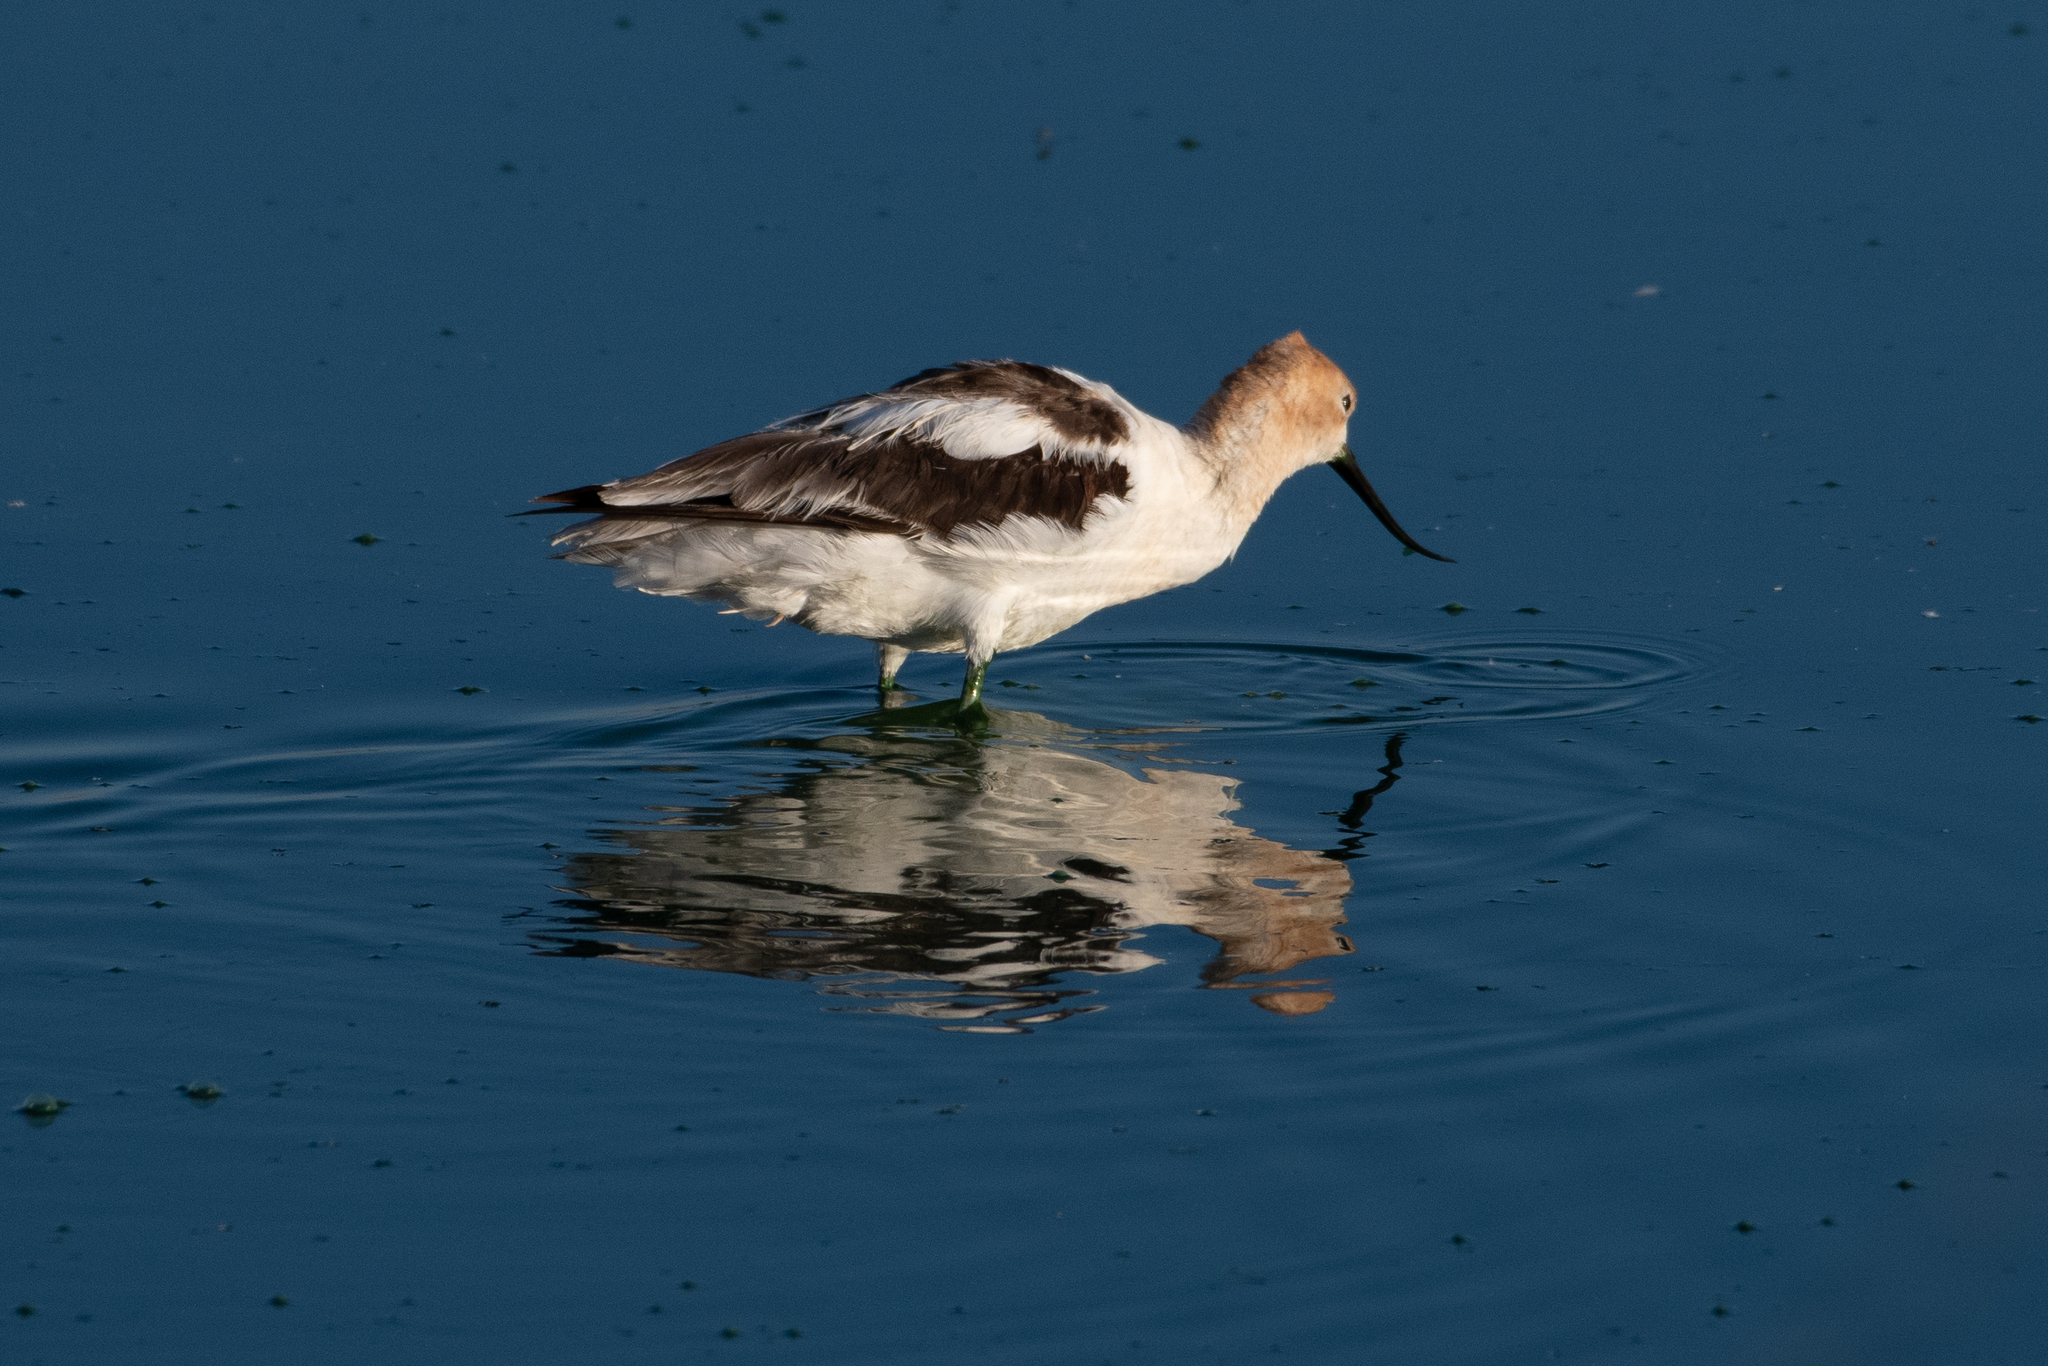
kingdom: Animalia
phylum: Chordata
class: Aves
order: Charadriiformes
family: Recurvirostridae
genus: Recurvirostra
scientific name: Recurvirostra americana
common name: American avocet
